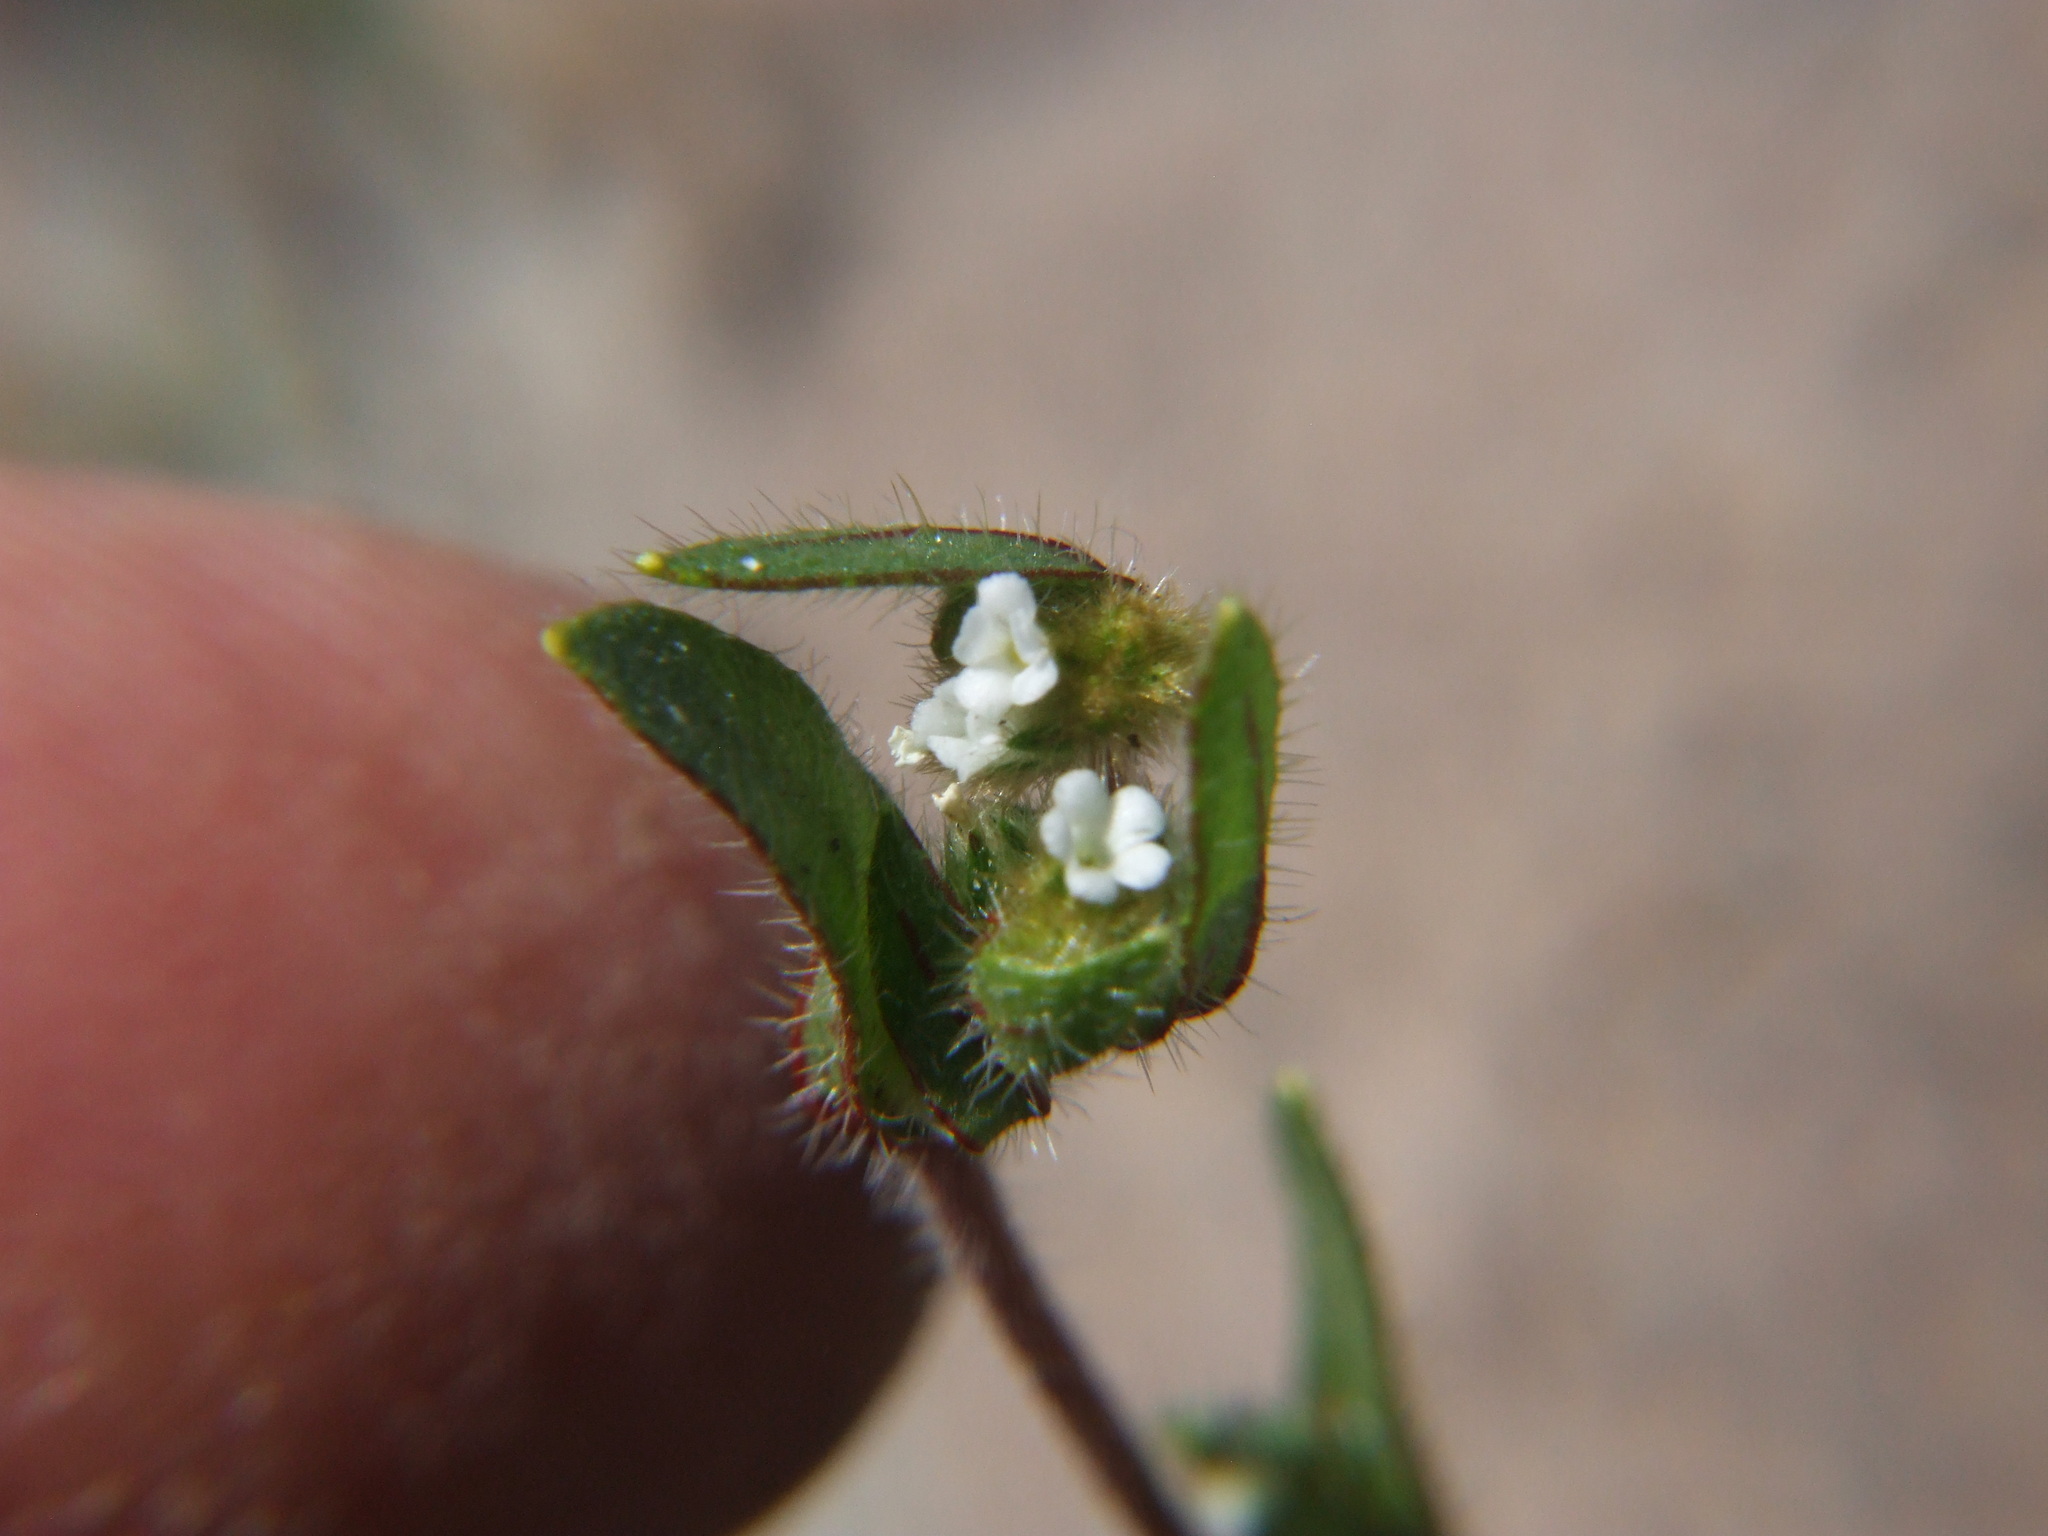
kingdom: Plantae
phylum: Tracheophyta
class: Magnoliopsida
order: Boraginales
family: Boraginaceae
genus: Plagiobothrys
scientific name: Plagiobothrys myosotoides
